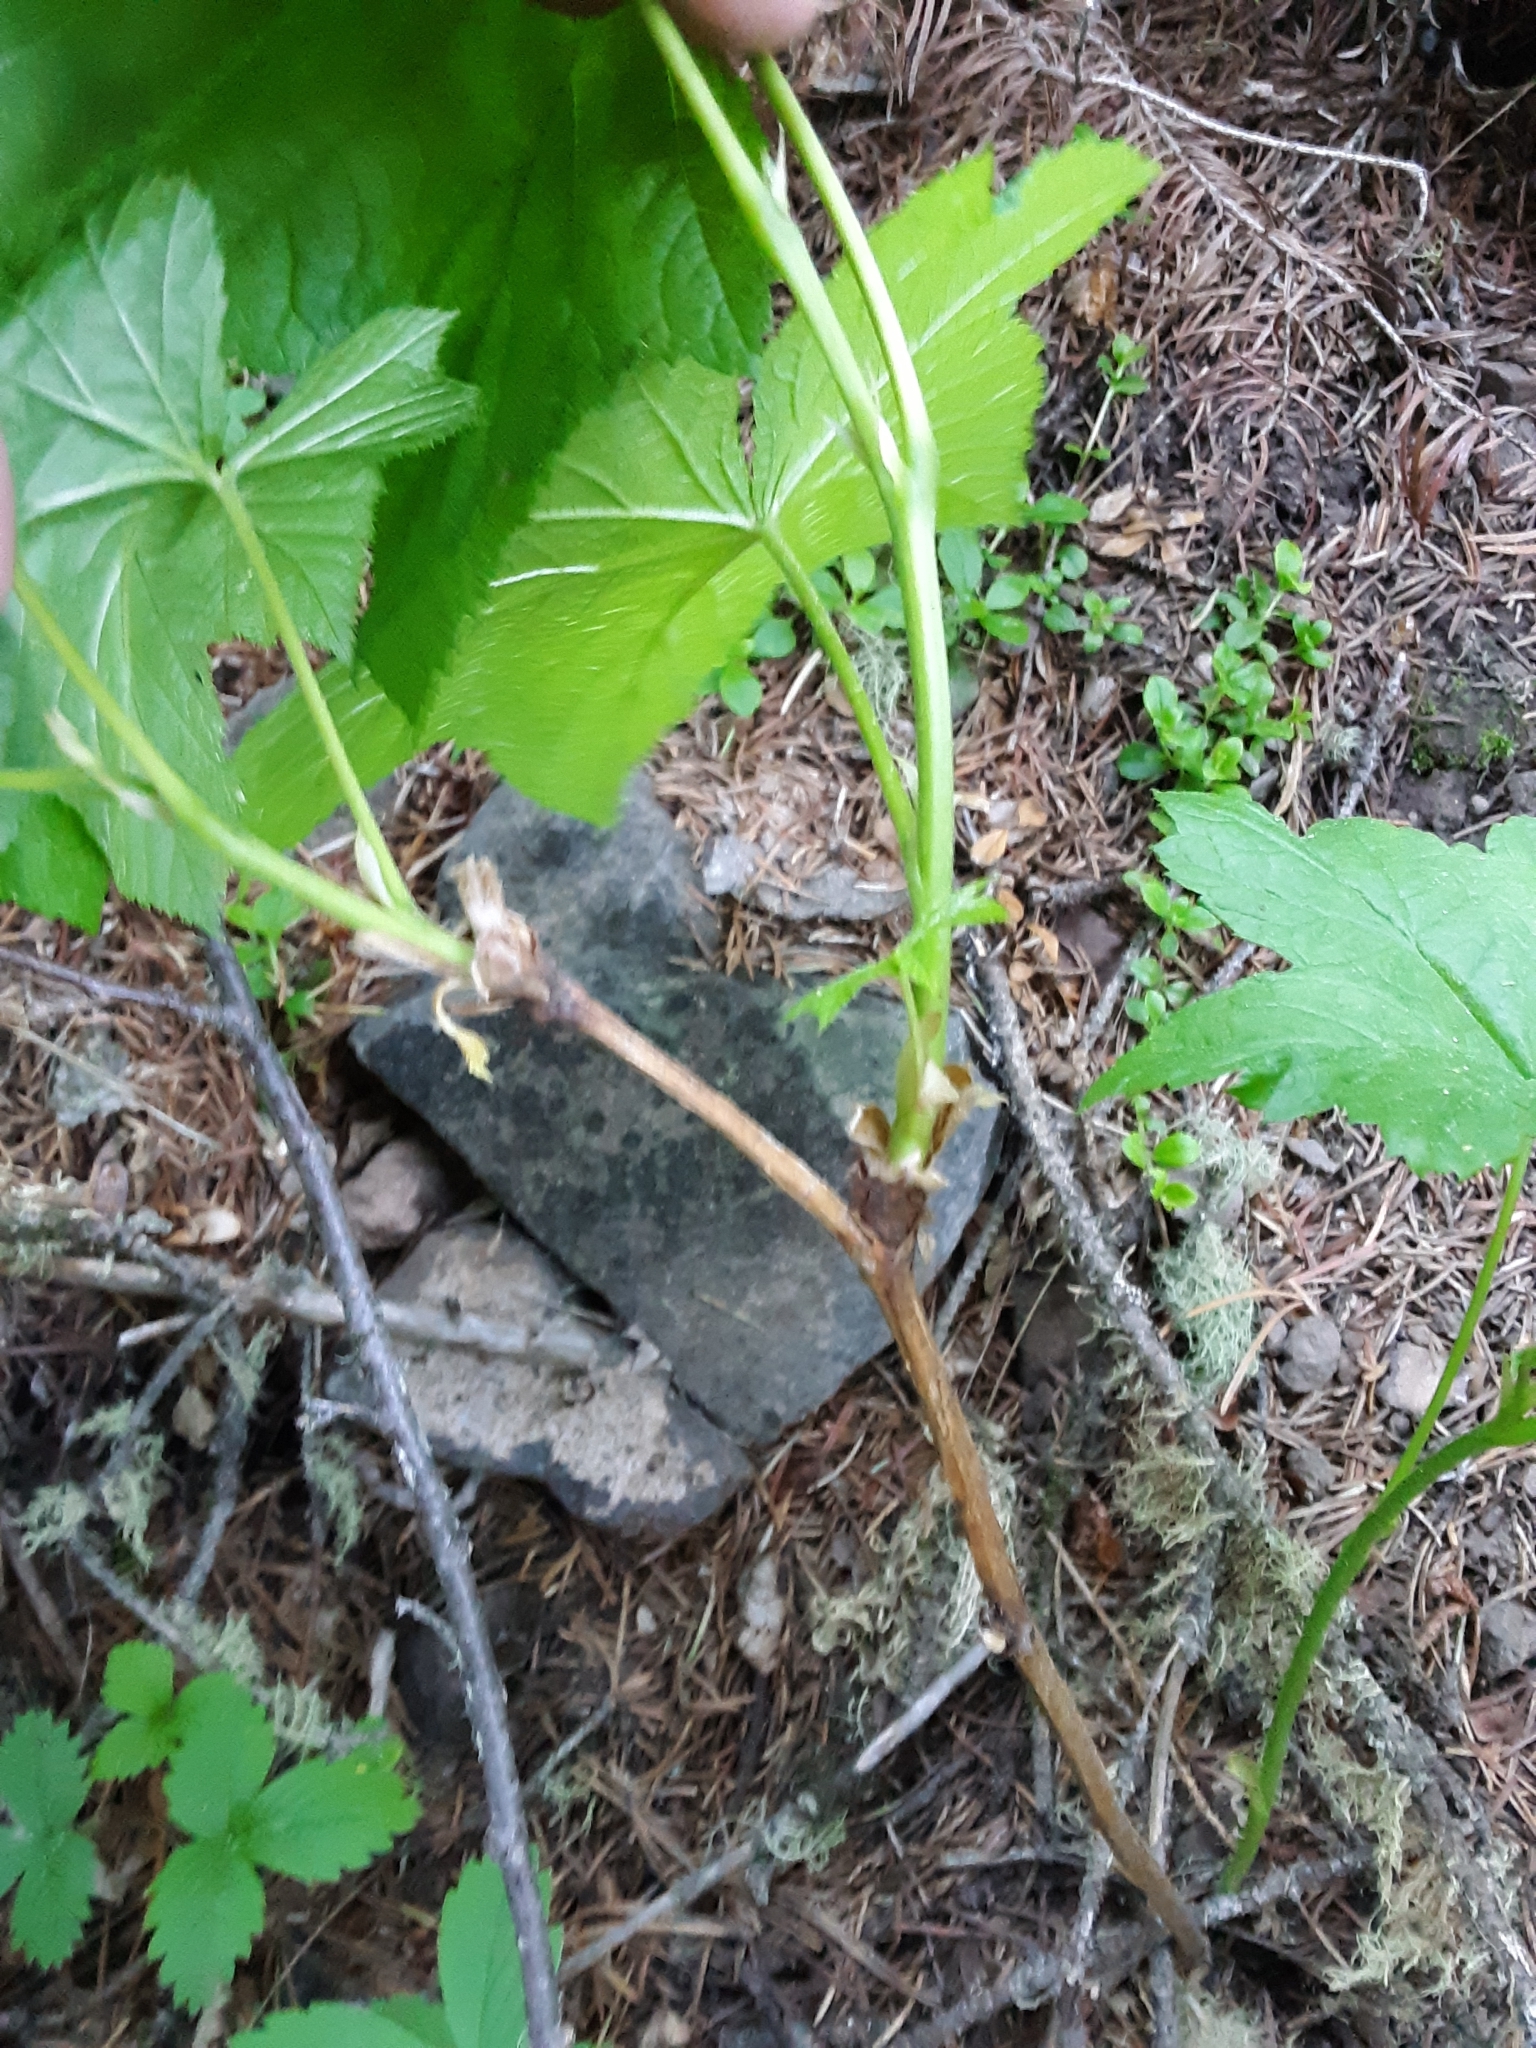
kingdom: Plantae
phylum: Tracheophyta
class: Magnoliopsida
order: Rosales
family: Rosaceae
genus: Rubus
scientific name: Rubus parviflorus
